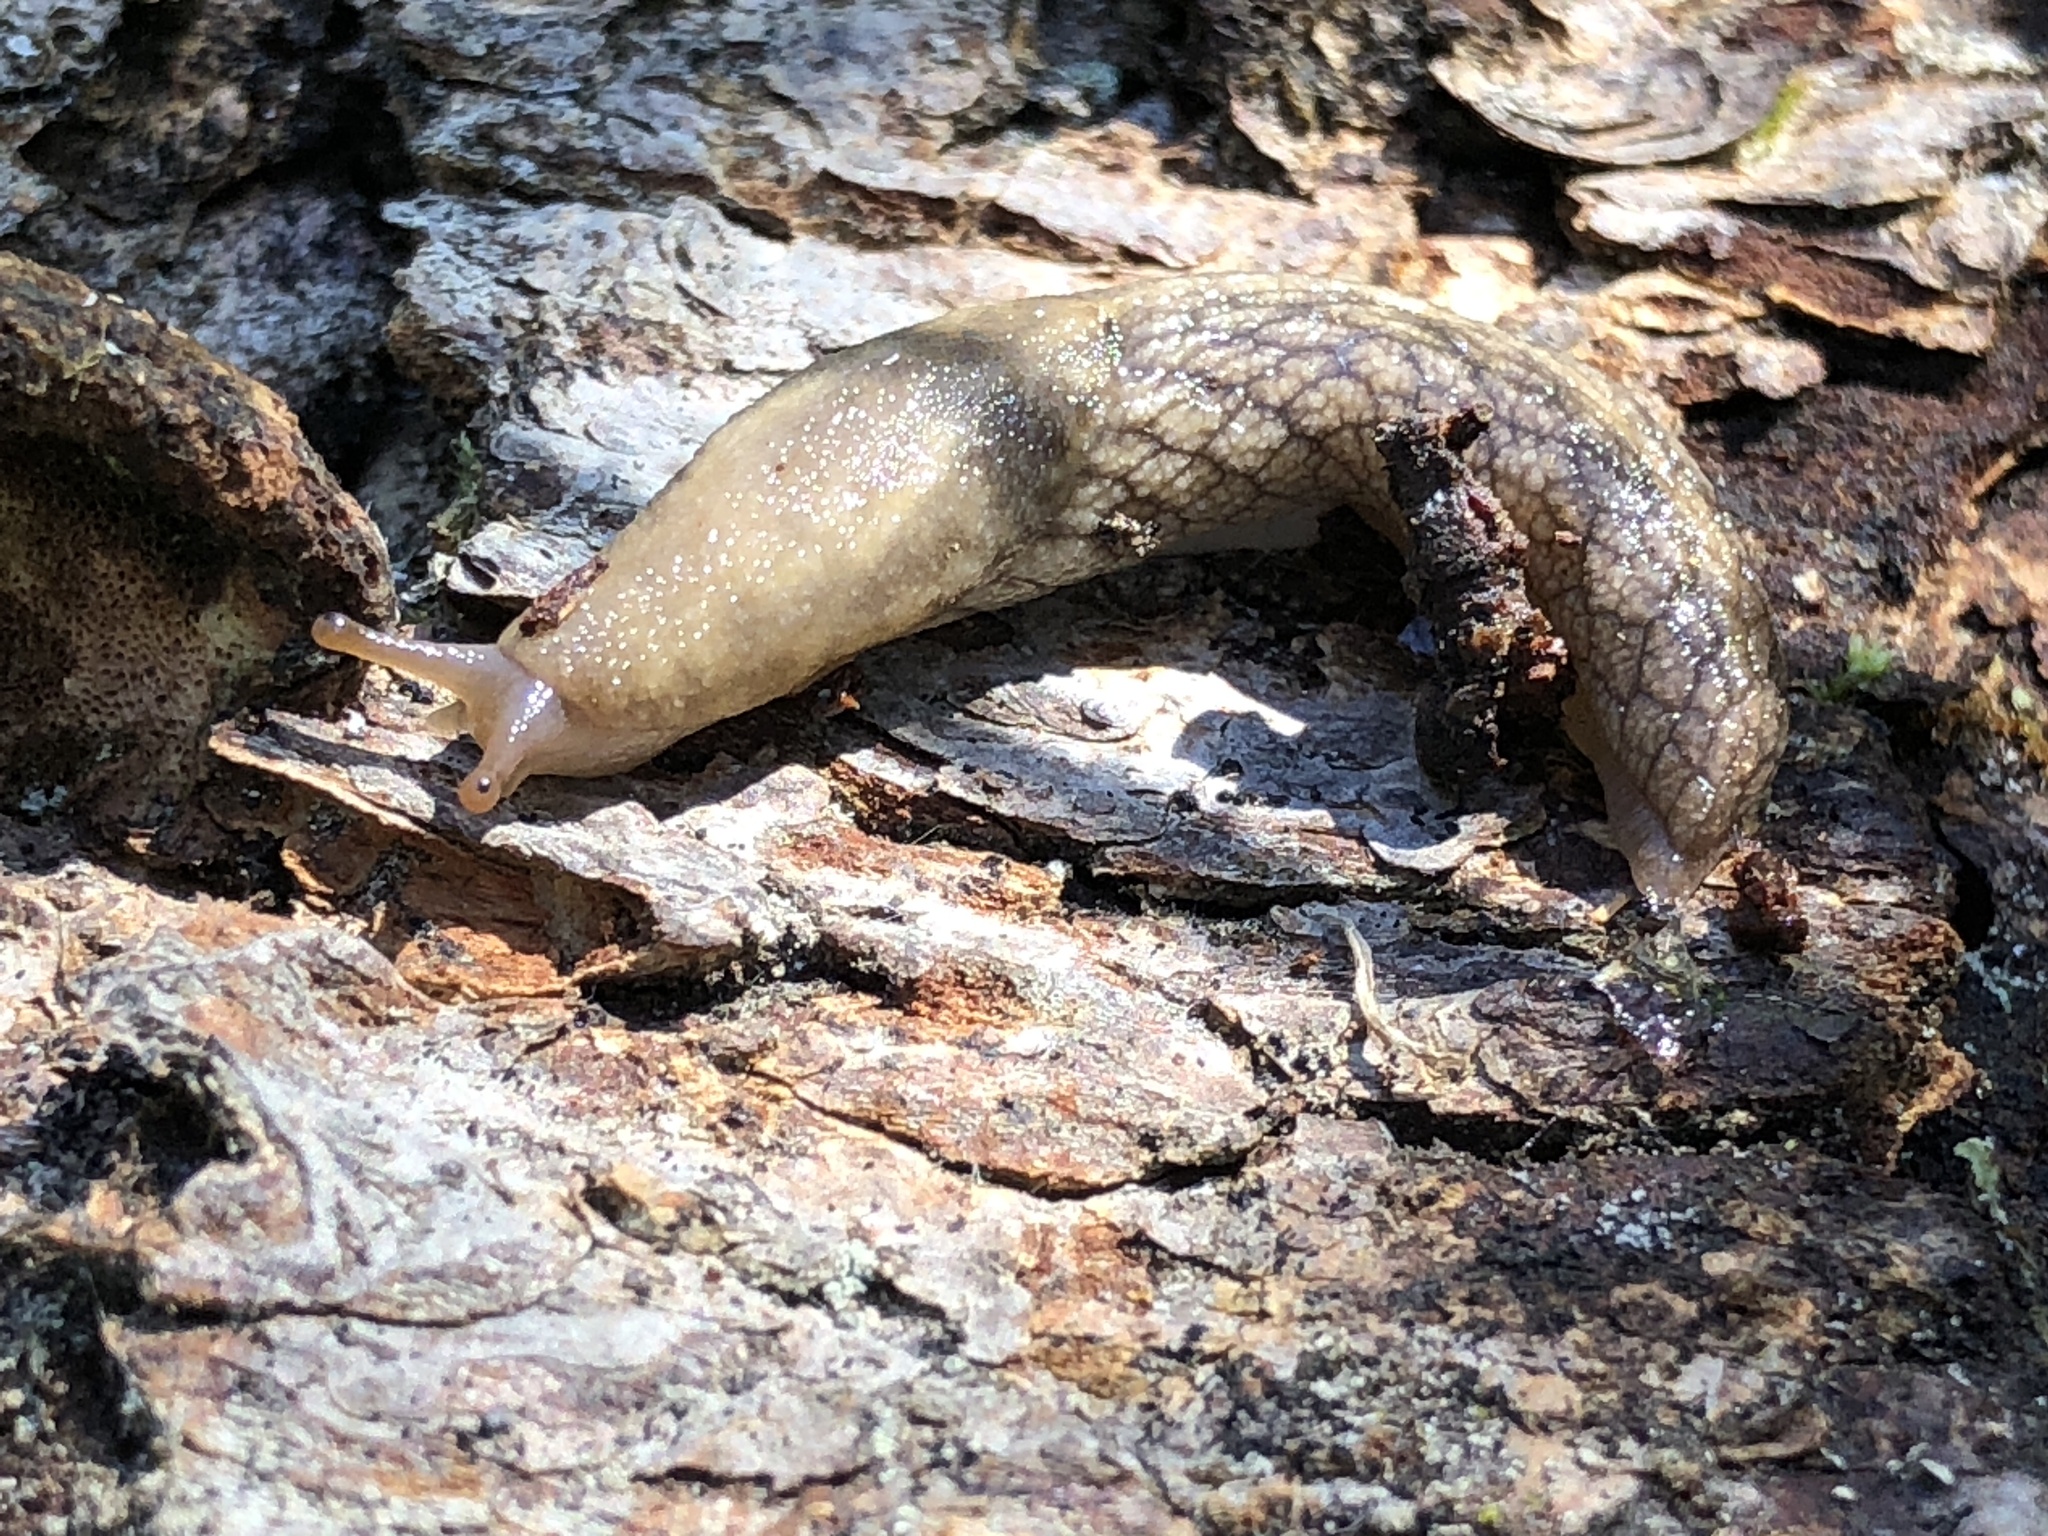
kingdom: Animalia
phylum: Mollusca
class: Gastropoda
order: Stylommatophora
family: Ariolimacidae
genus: Prophysaon
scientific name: Prophysaon andersonii
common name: Reticulate taildropper
